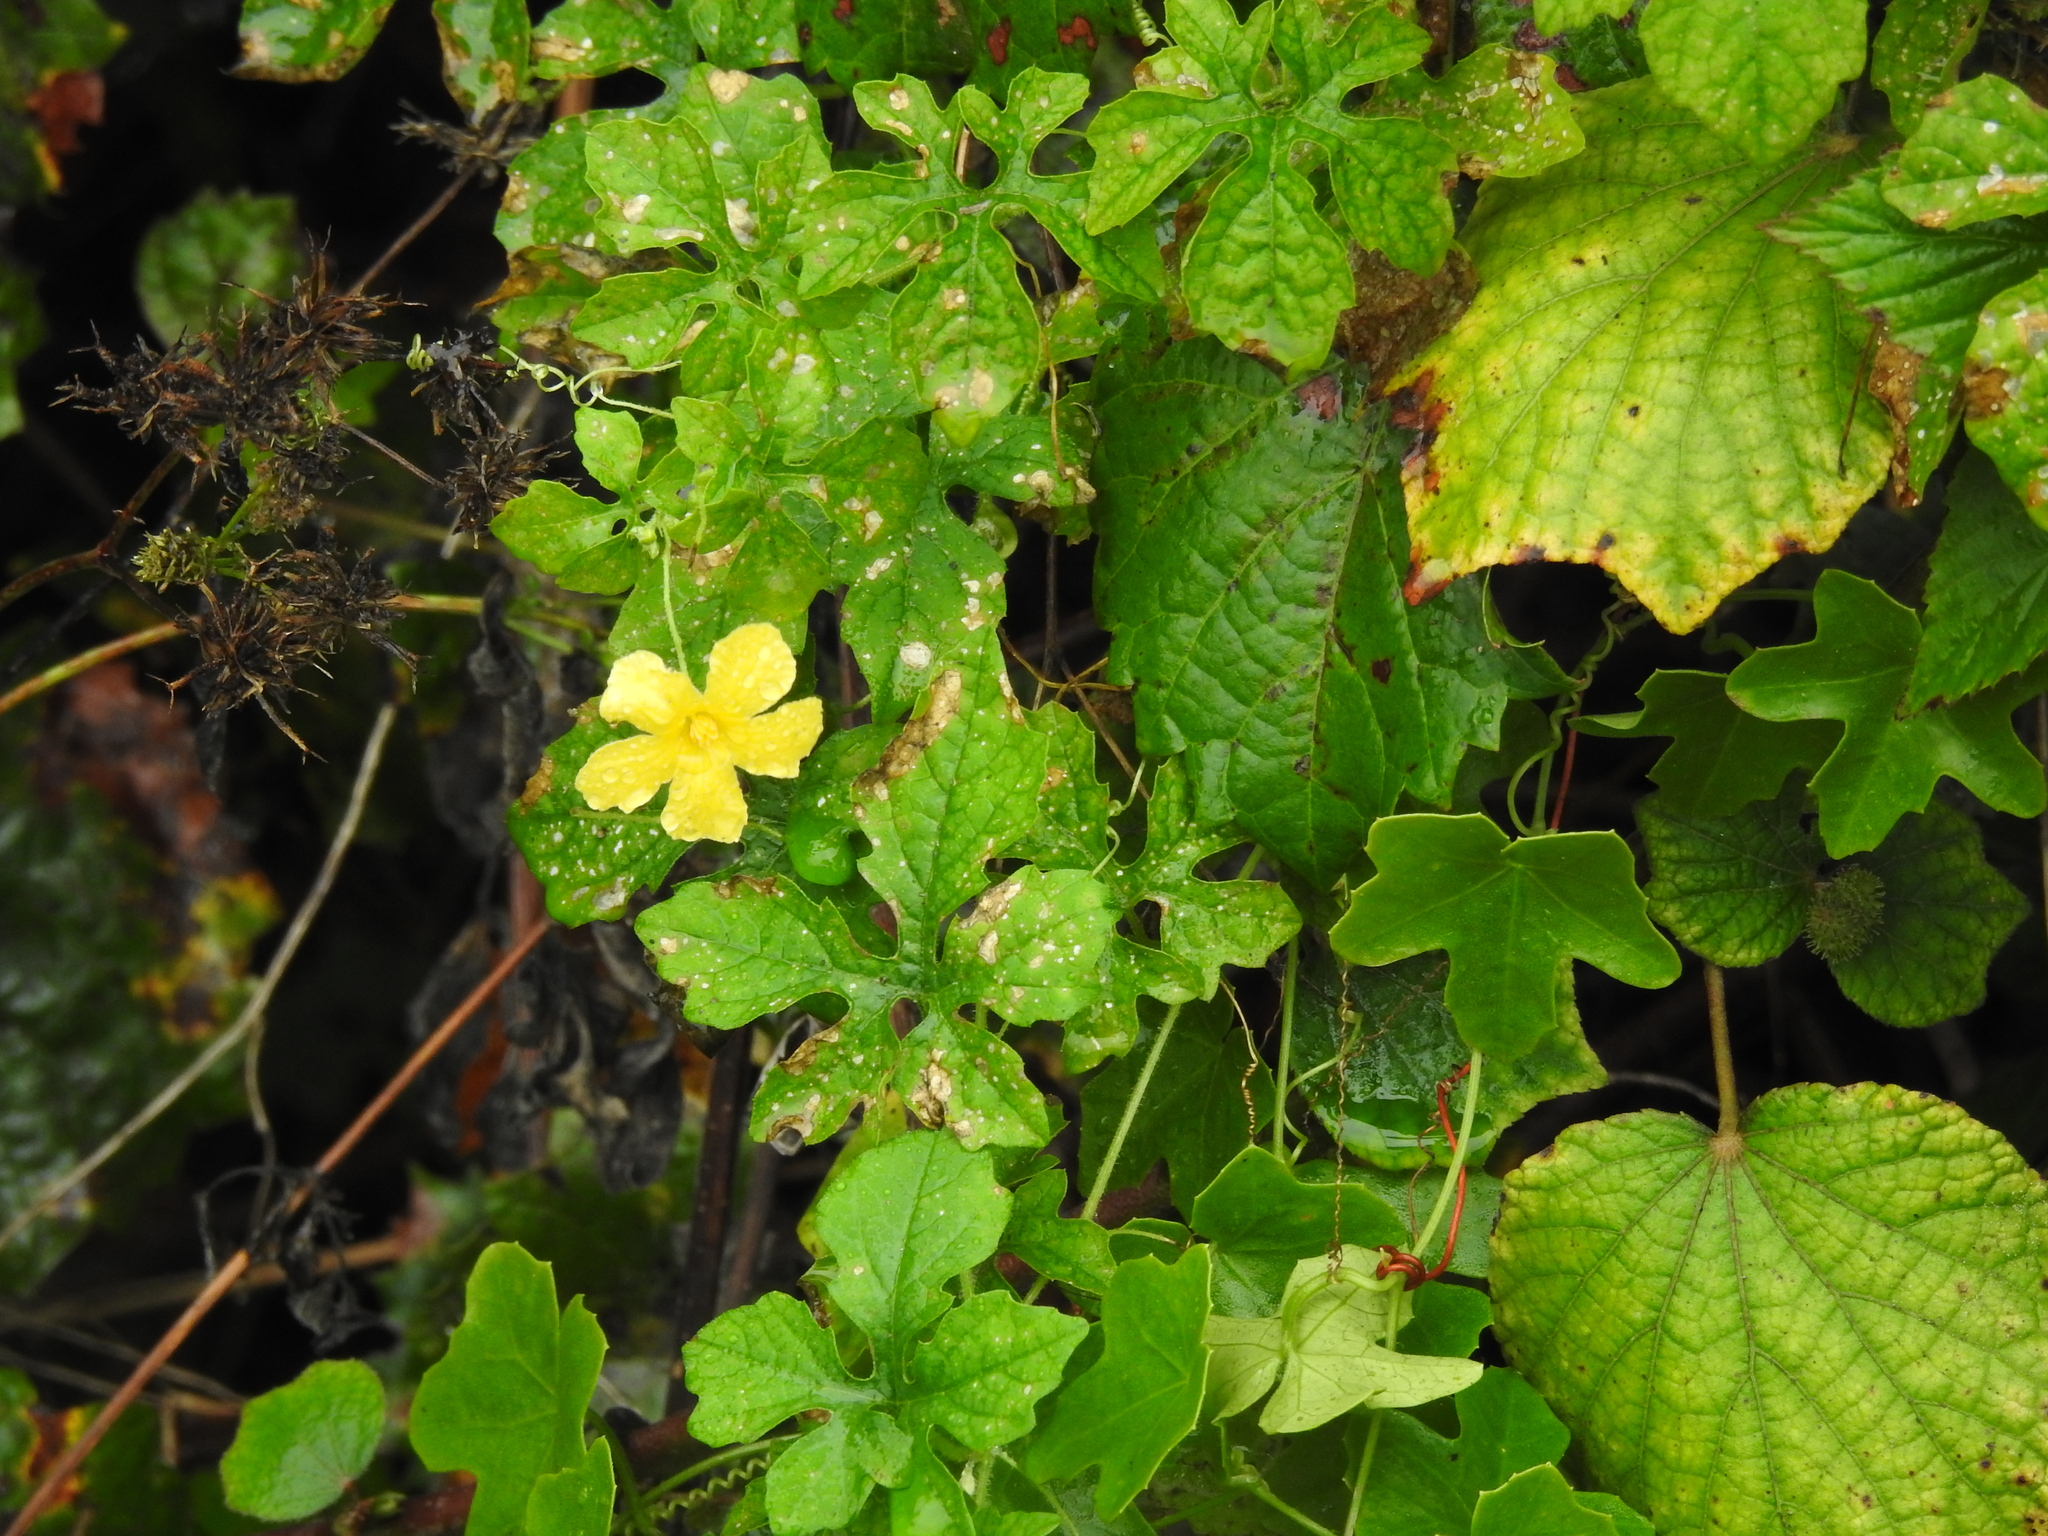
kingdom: Plantae
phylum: Tracheophyta
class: Magnoliopsida
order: Cucurbitales
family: Cucurbitaceae
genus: Momordica
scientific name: Momordica charantia
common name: Balsampear
